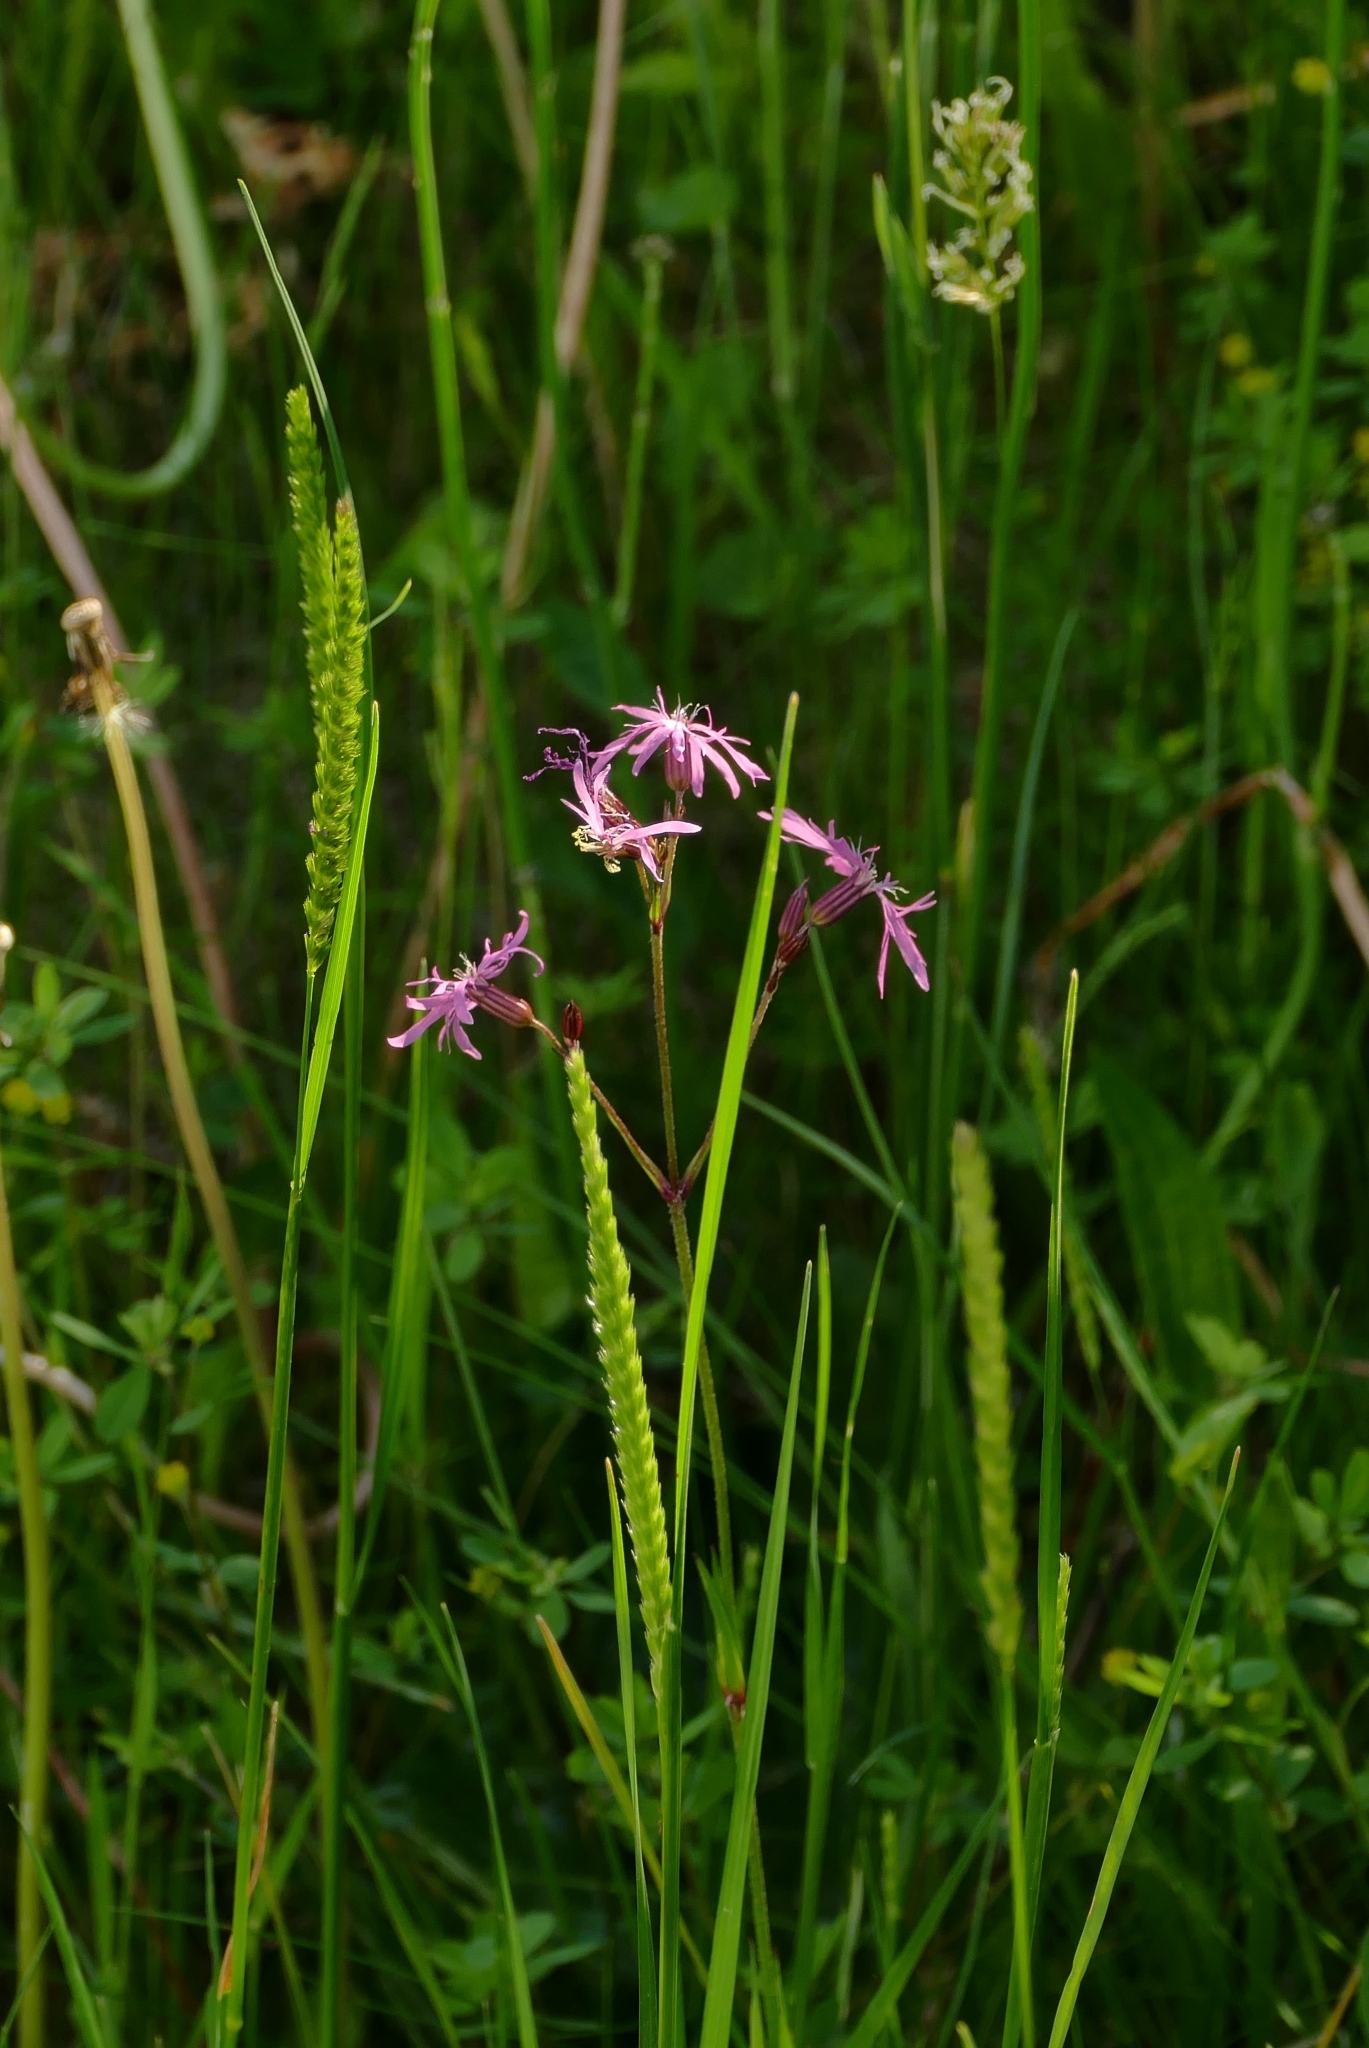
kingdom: Plantae
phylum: Tracheophyta
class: Magnoliopsida
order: Caryophyllales
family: Caryophyllaceae
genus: Silene
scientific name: Silene flos-cuculi
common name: Ragged-robin
